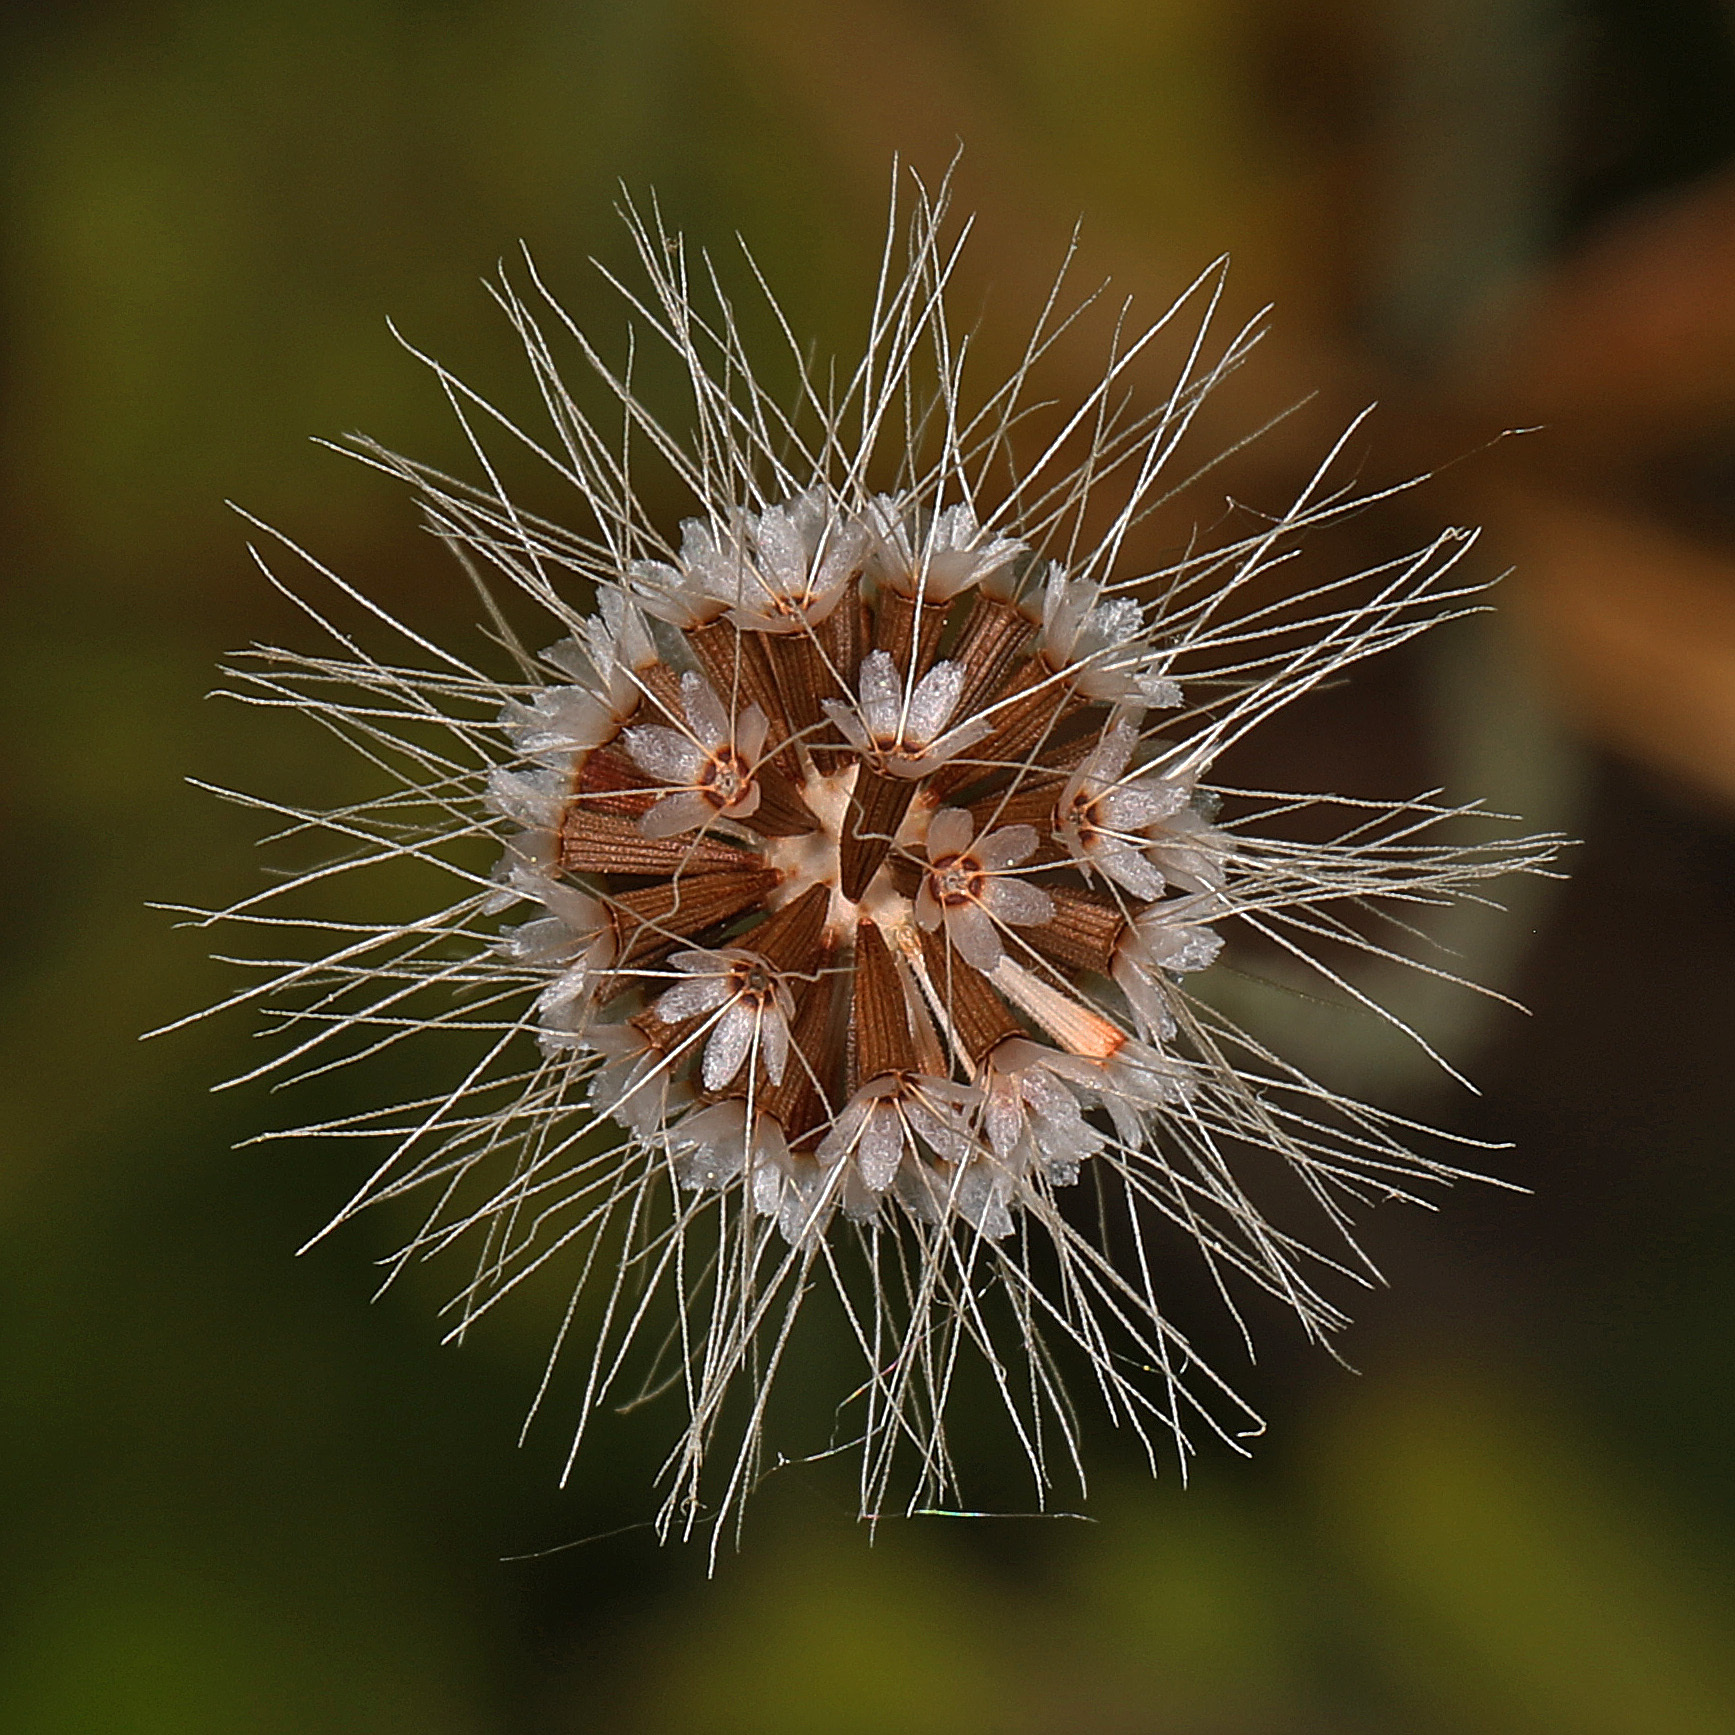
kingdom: Plantae
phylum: Tracheophyta
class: Magnoliopsida
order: Asterales
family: Asteraceae
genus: Krigia
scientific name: Krigia virginica
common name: Virginia dwarf-dandelion
